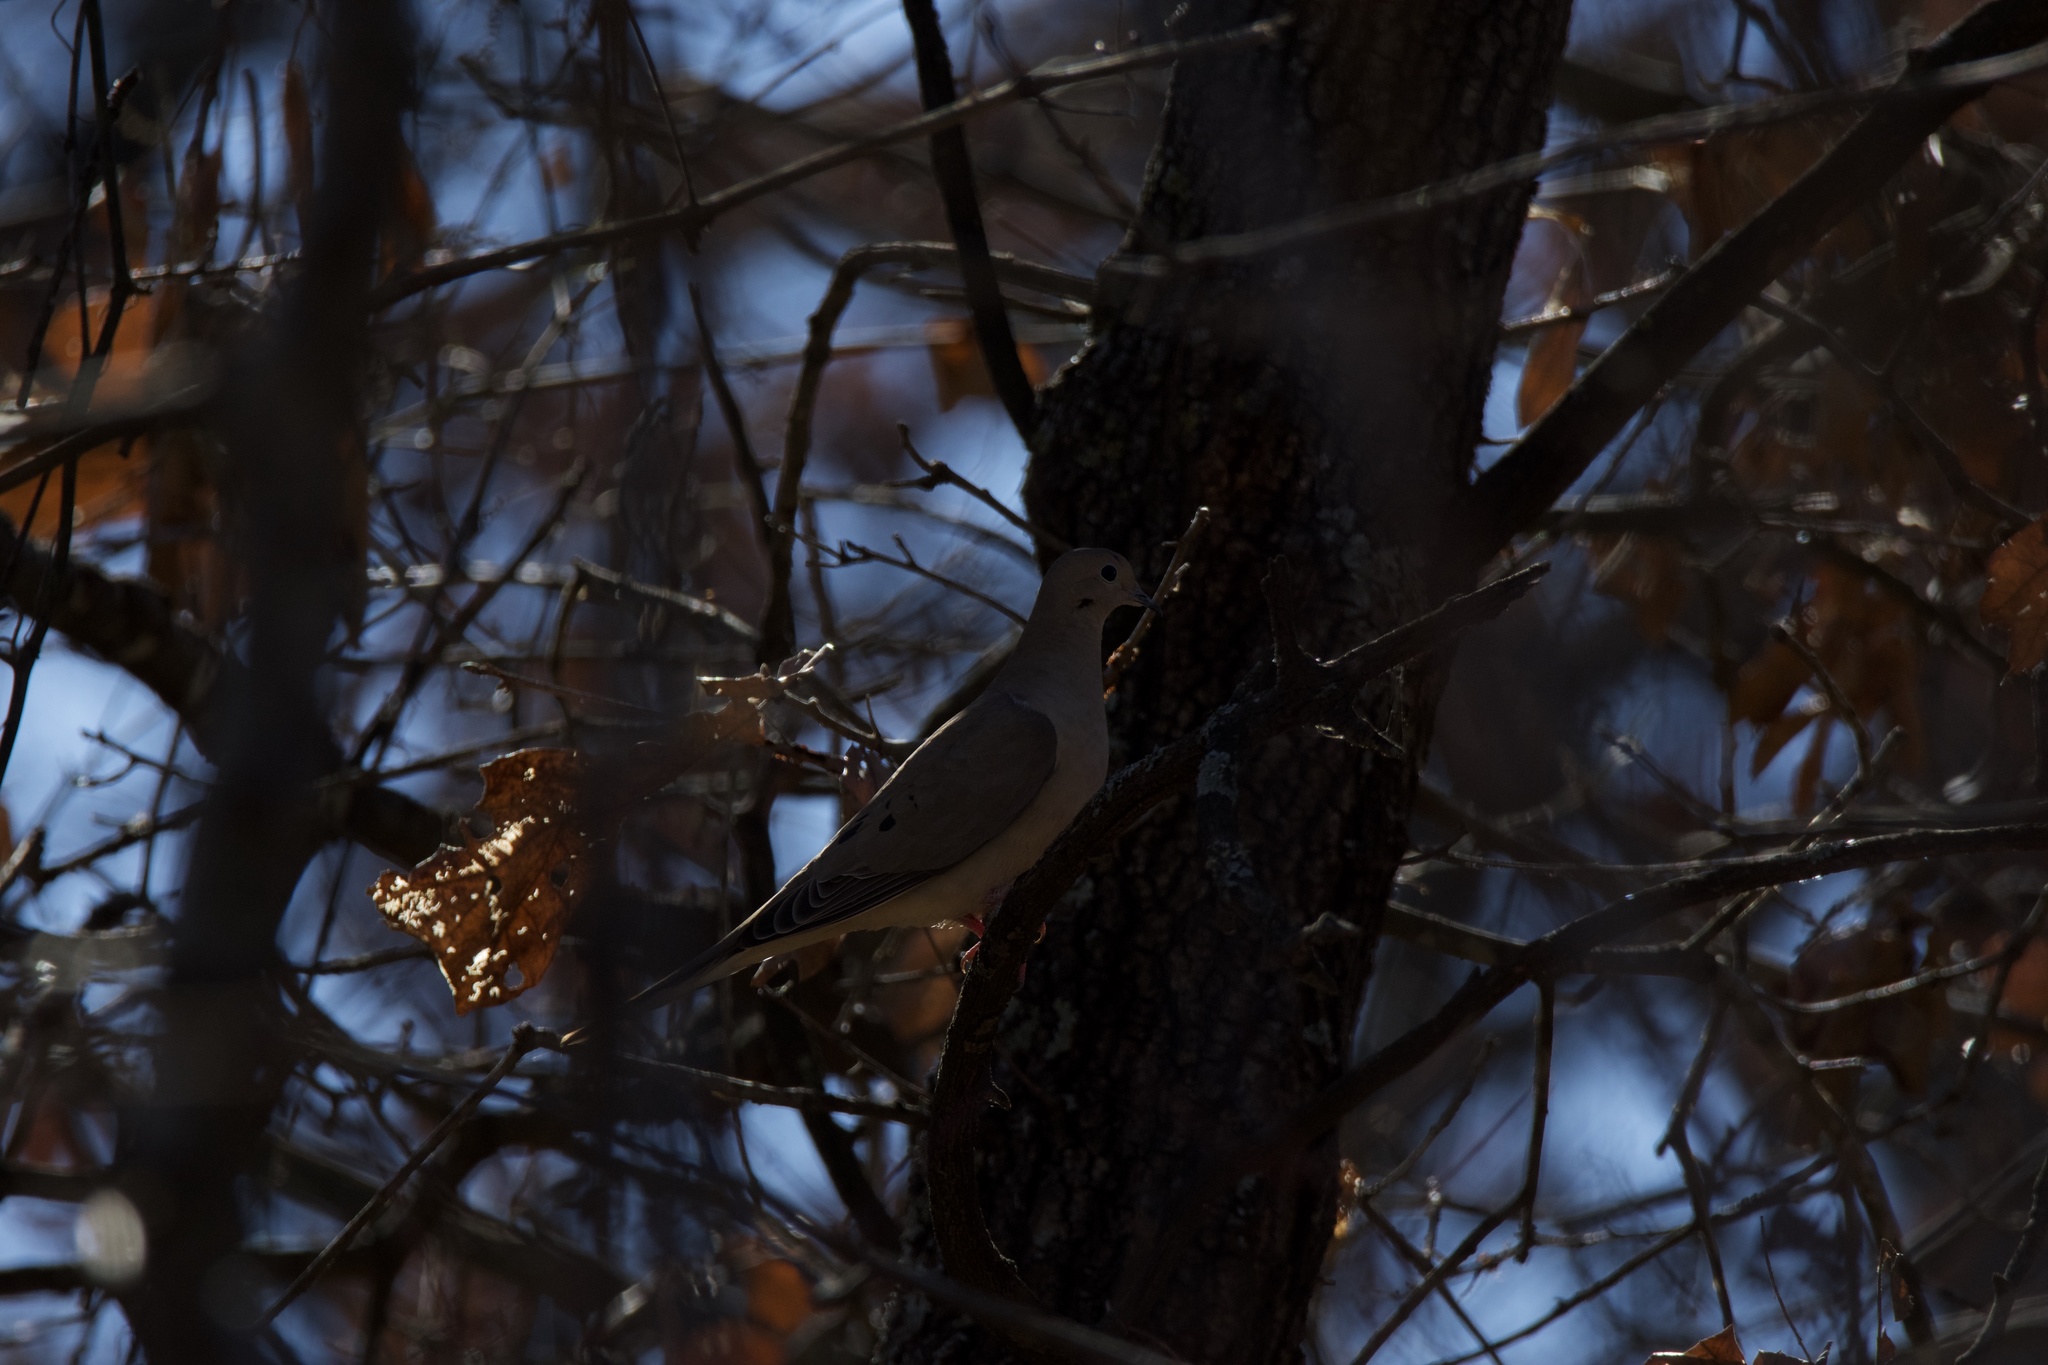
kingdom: Animalia
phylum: Chordata
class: Aves
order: Columbiformes
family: Columbidae
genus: Zenaida
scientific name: Zenaida macroura
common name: Mourning dove
